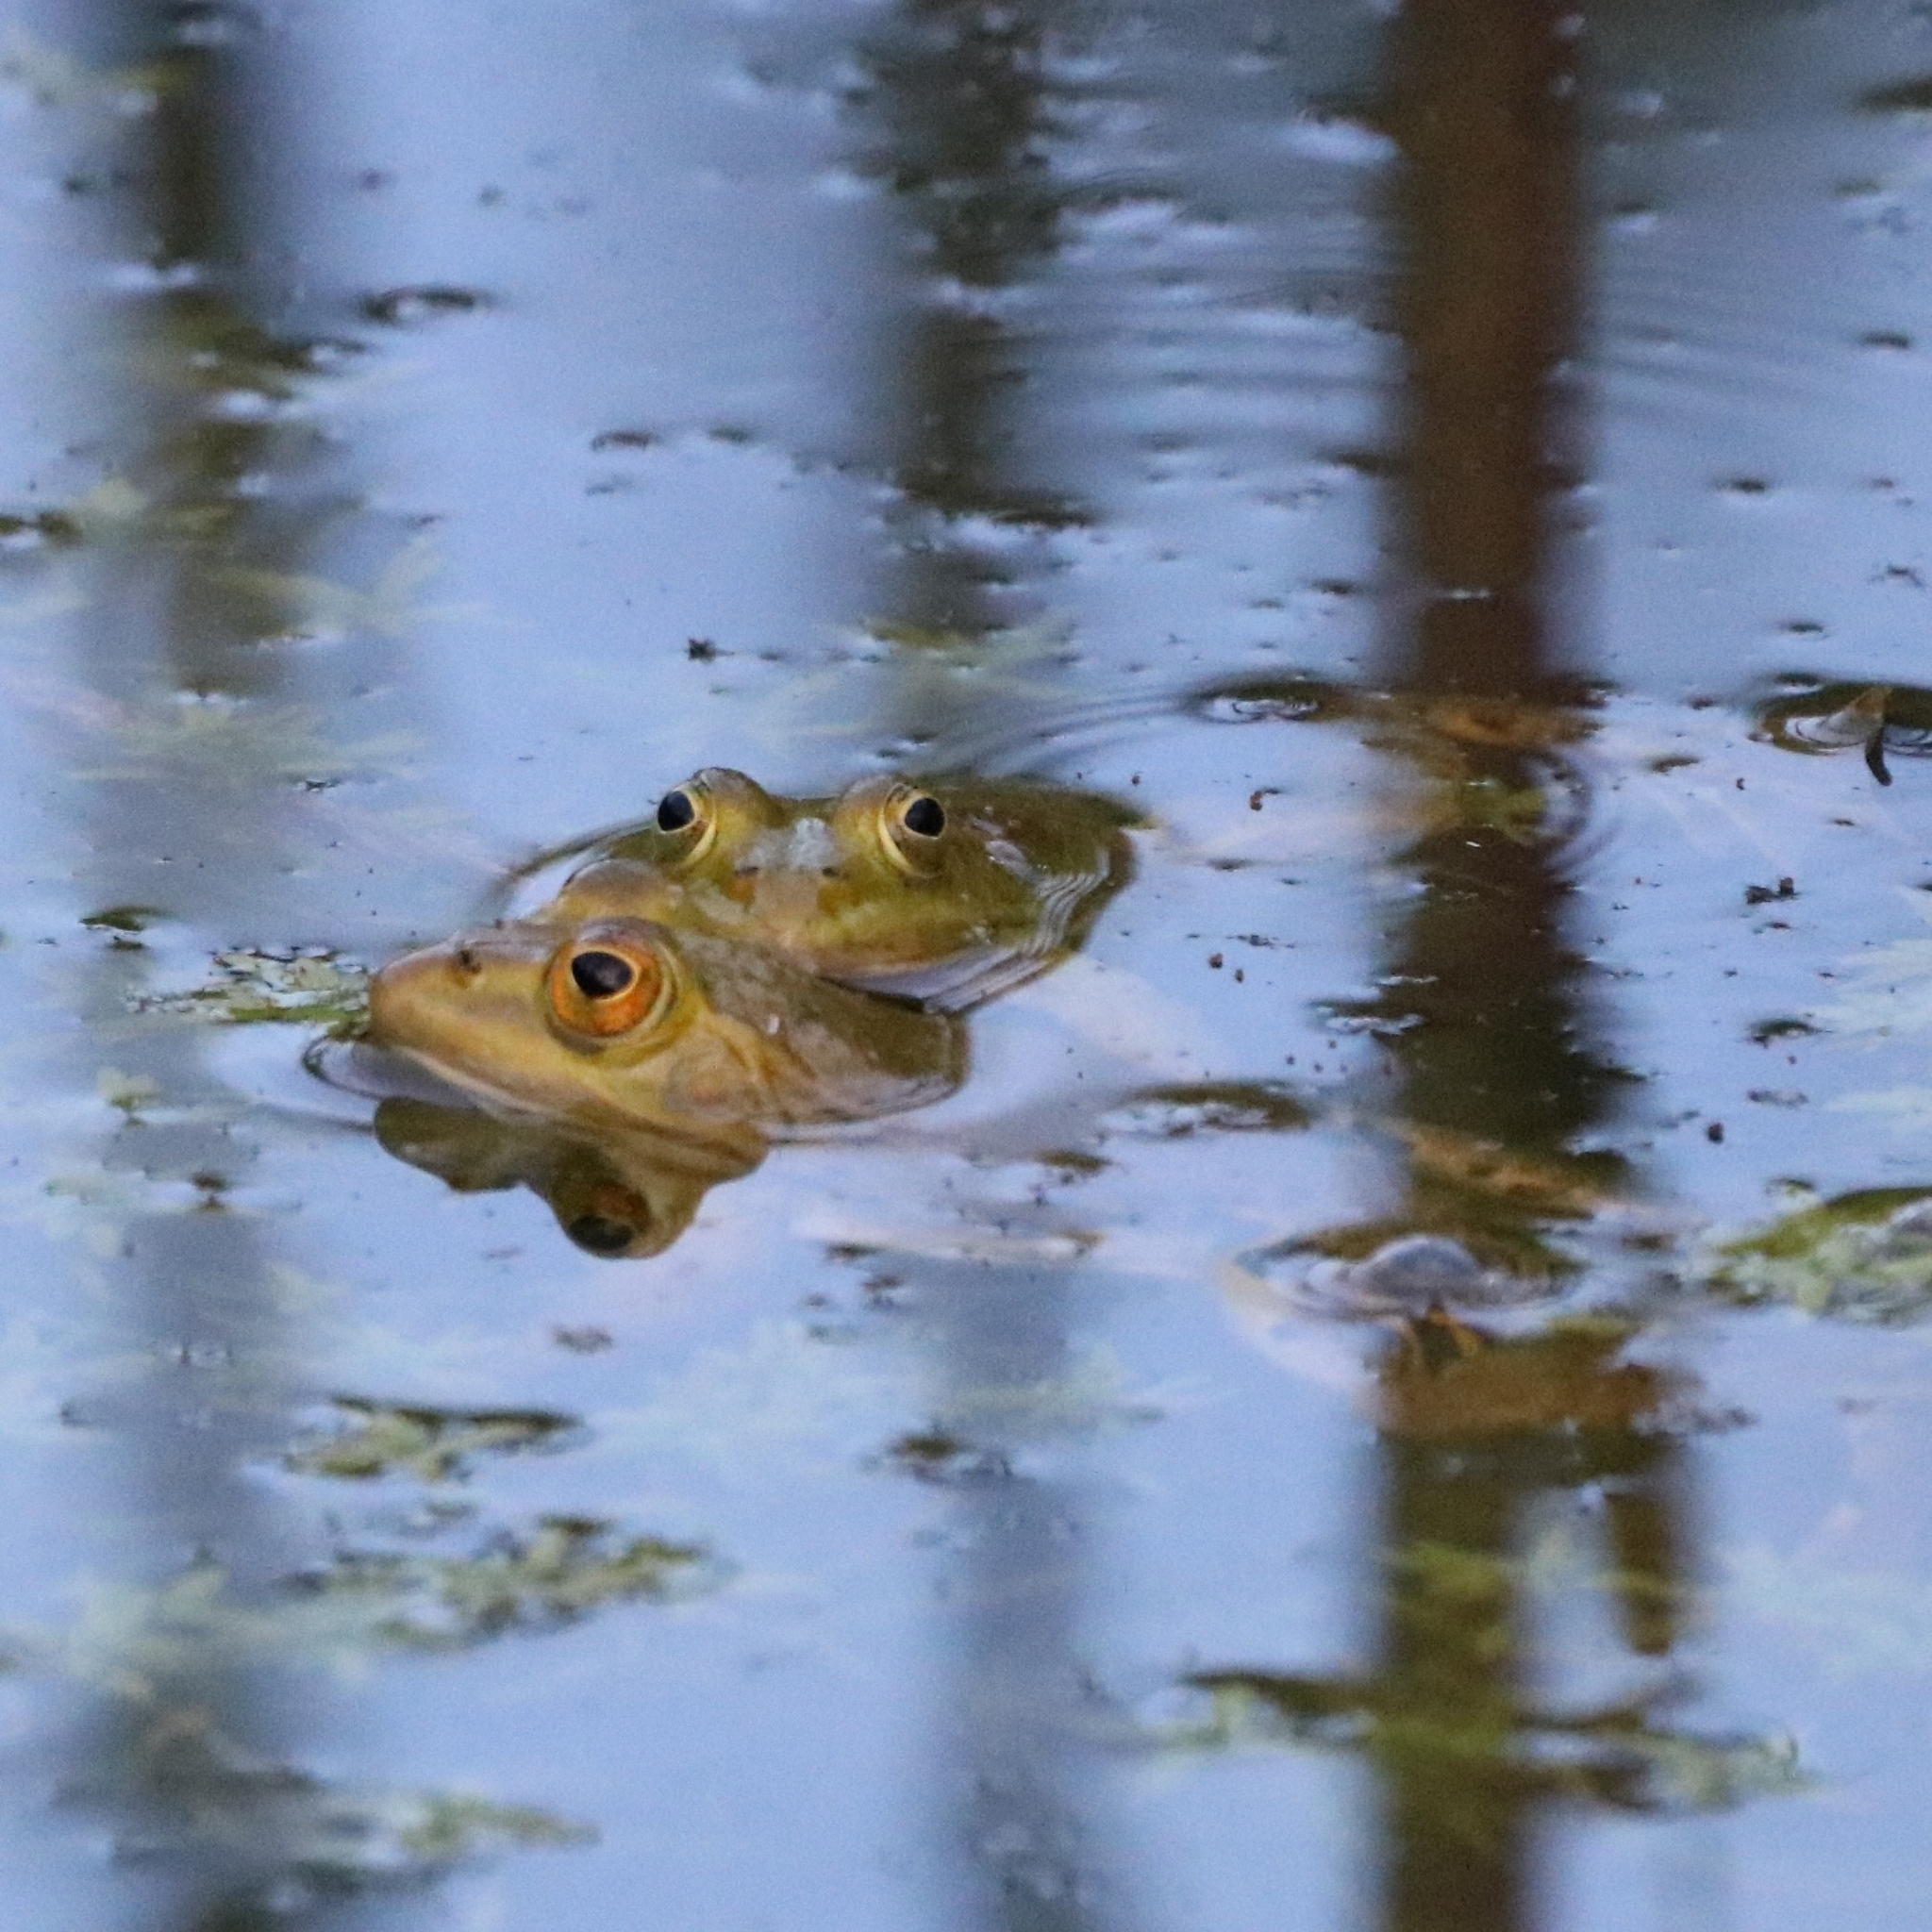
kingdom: Animalia
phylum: Chordata
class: Amphibia
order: Anura
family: Ranidae
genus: Pelophylax
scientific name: Pelophylax
